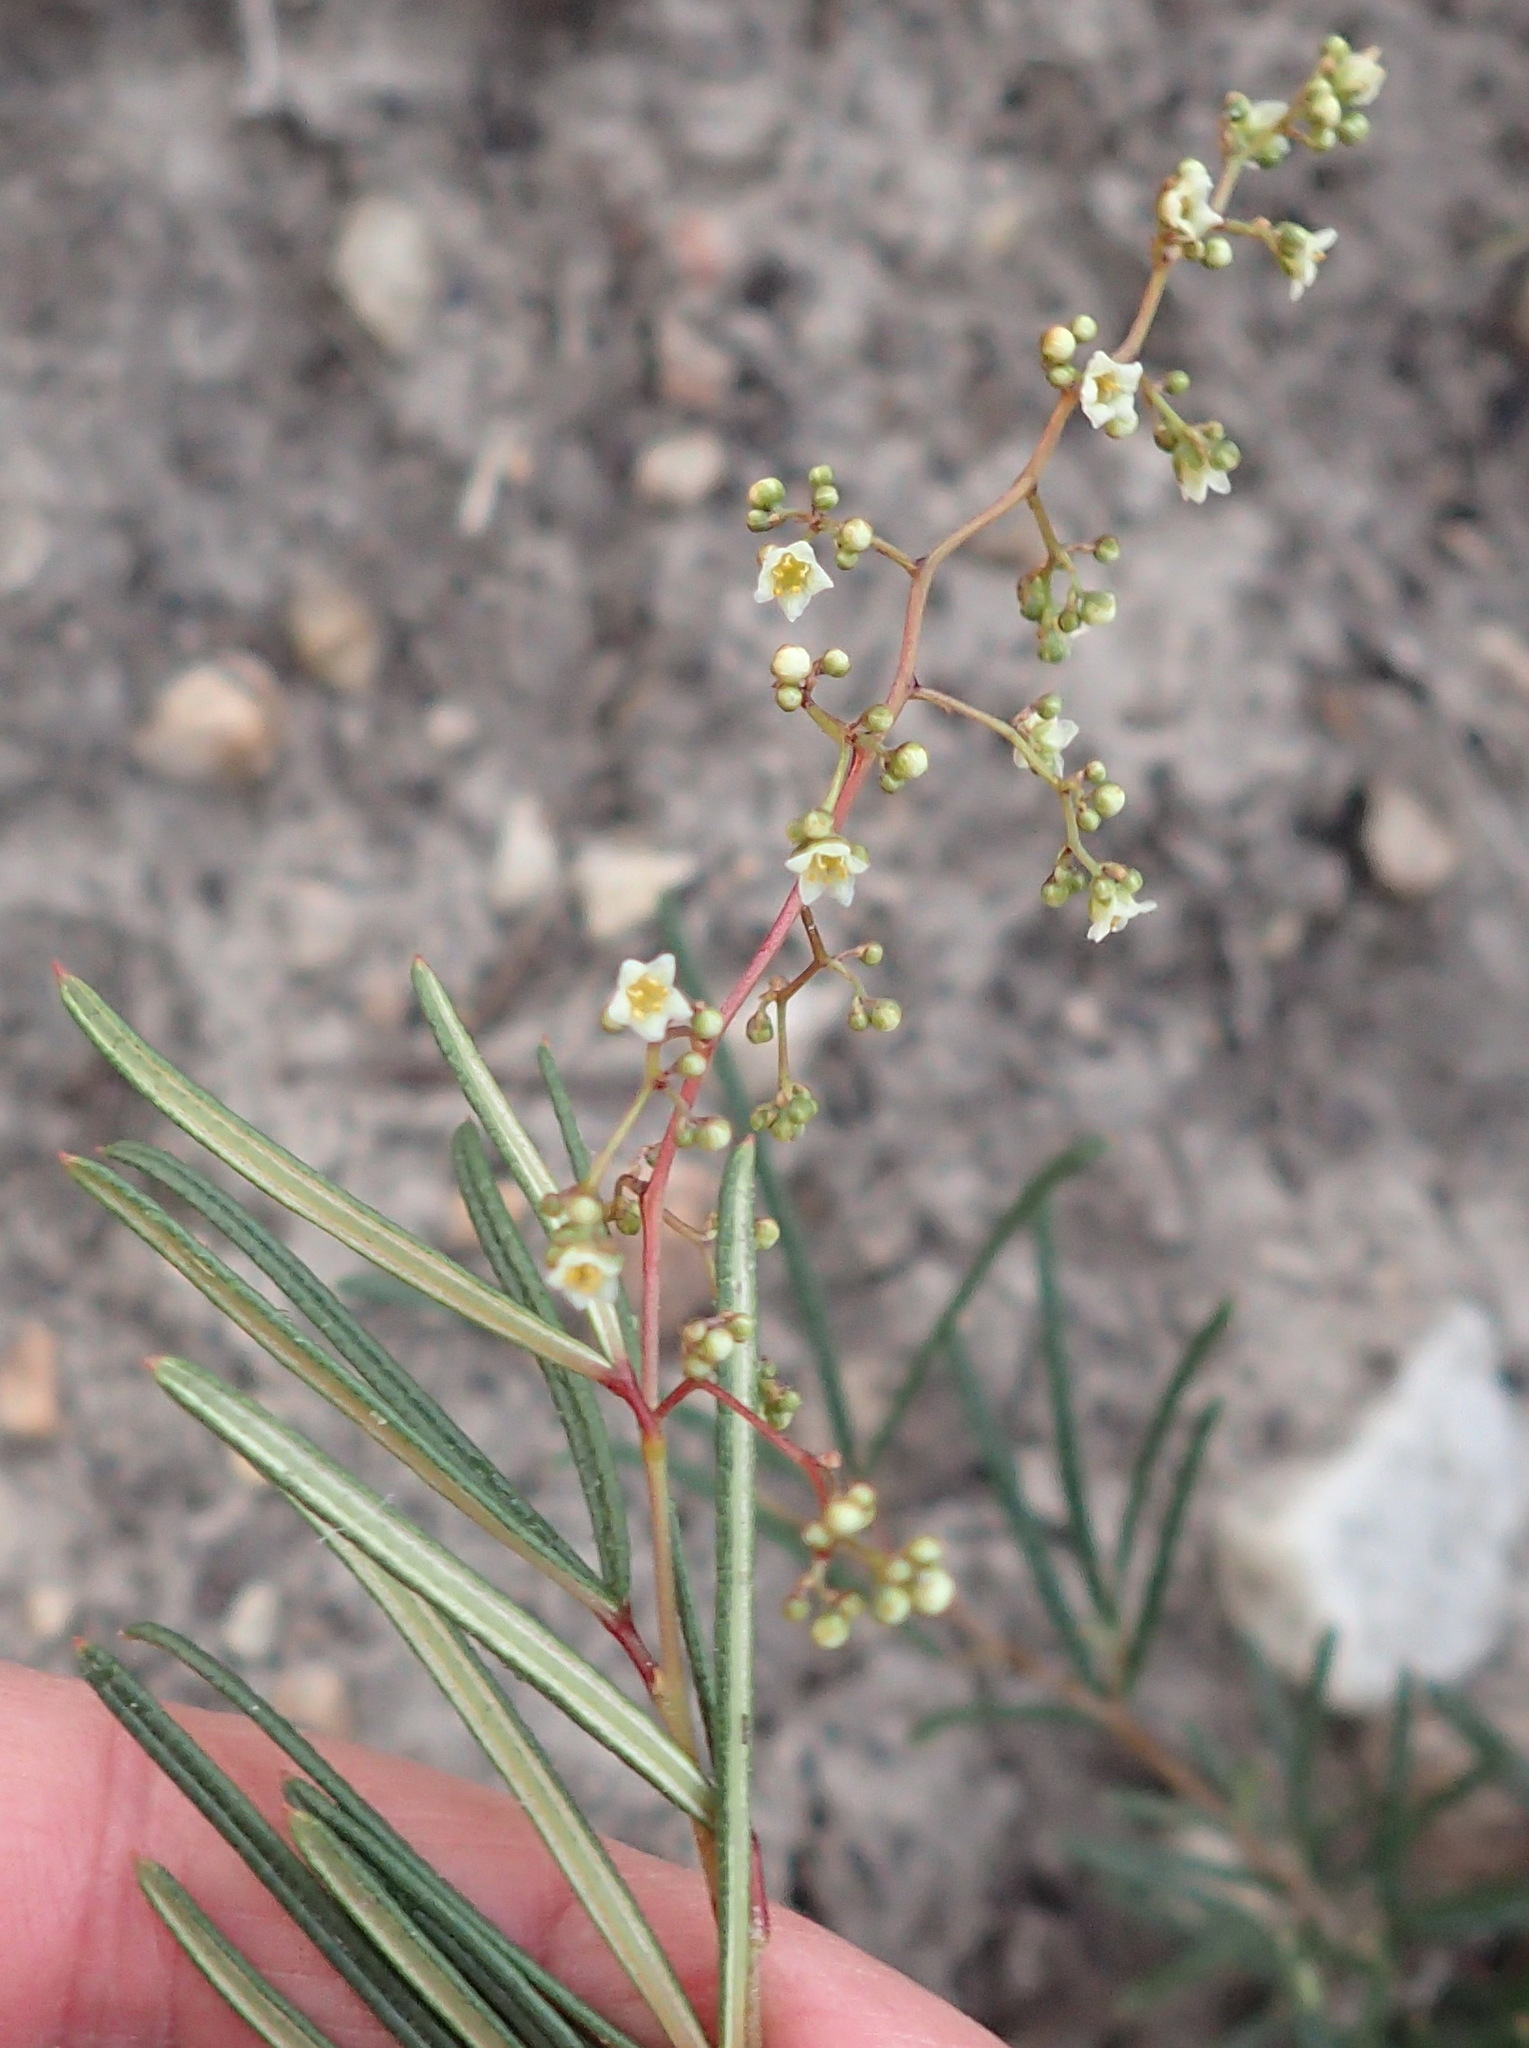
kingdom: Plantae
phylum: Tracheophyta
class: Magnoliopsida
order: Sapindales
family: Anacardiaceae
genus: Searsia
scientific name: Searsia rosmarinifolia
